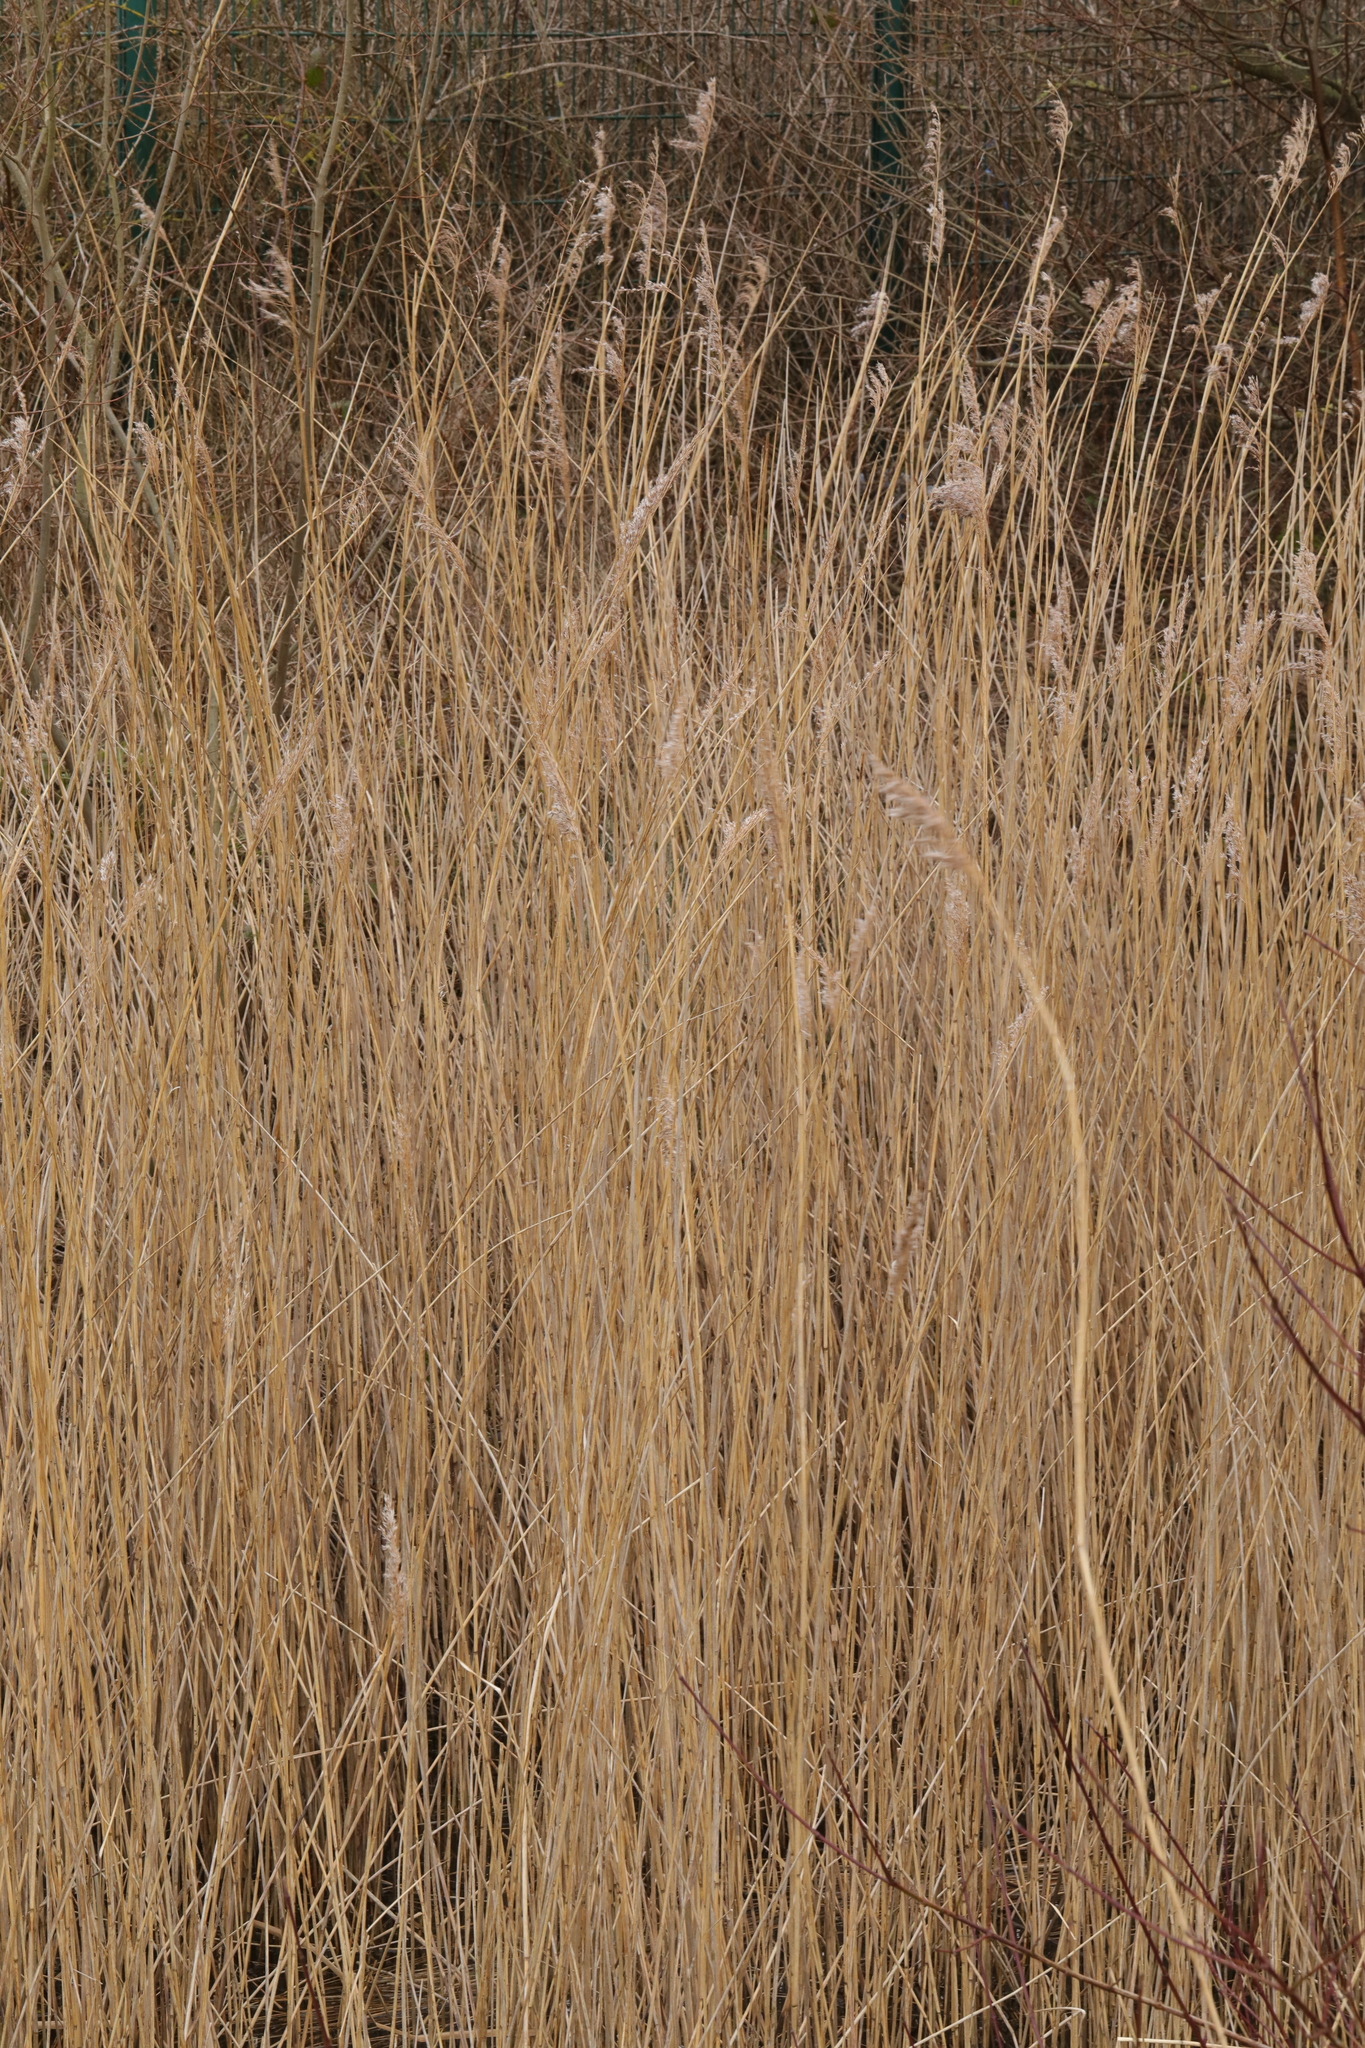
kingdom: Plantae
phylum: Tracheophyta
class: Liliopsida
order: Poales
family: Poaceae
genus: Phragmites
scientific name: Phragmites australis
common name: Common reed
